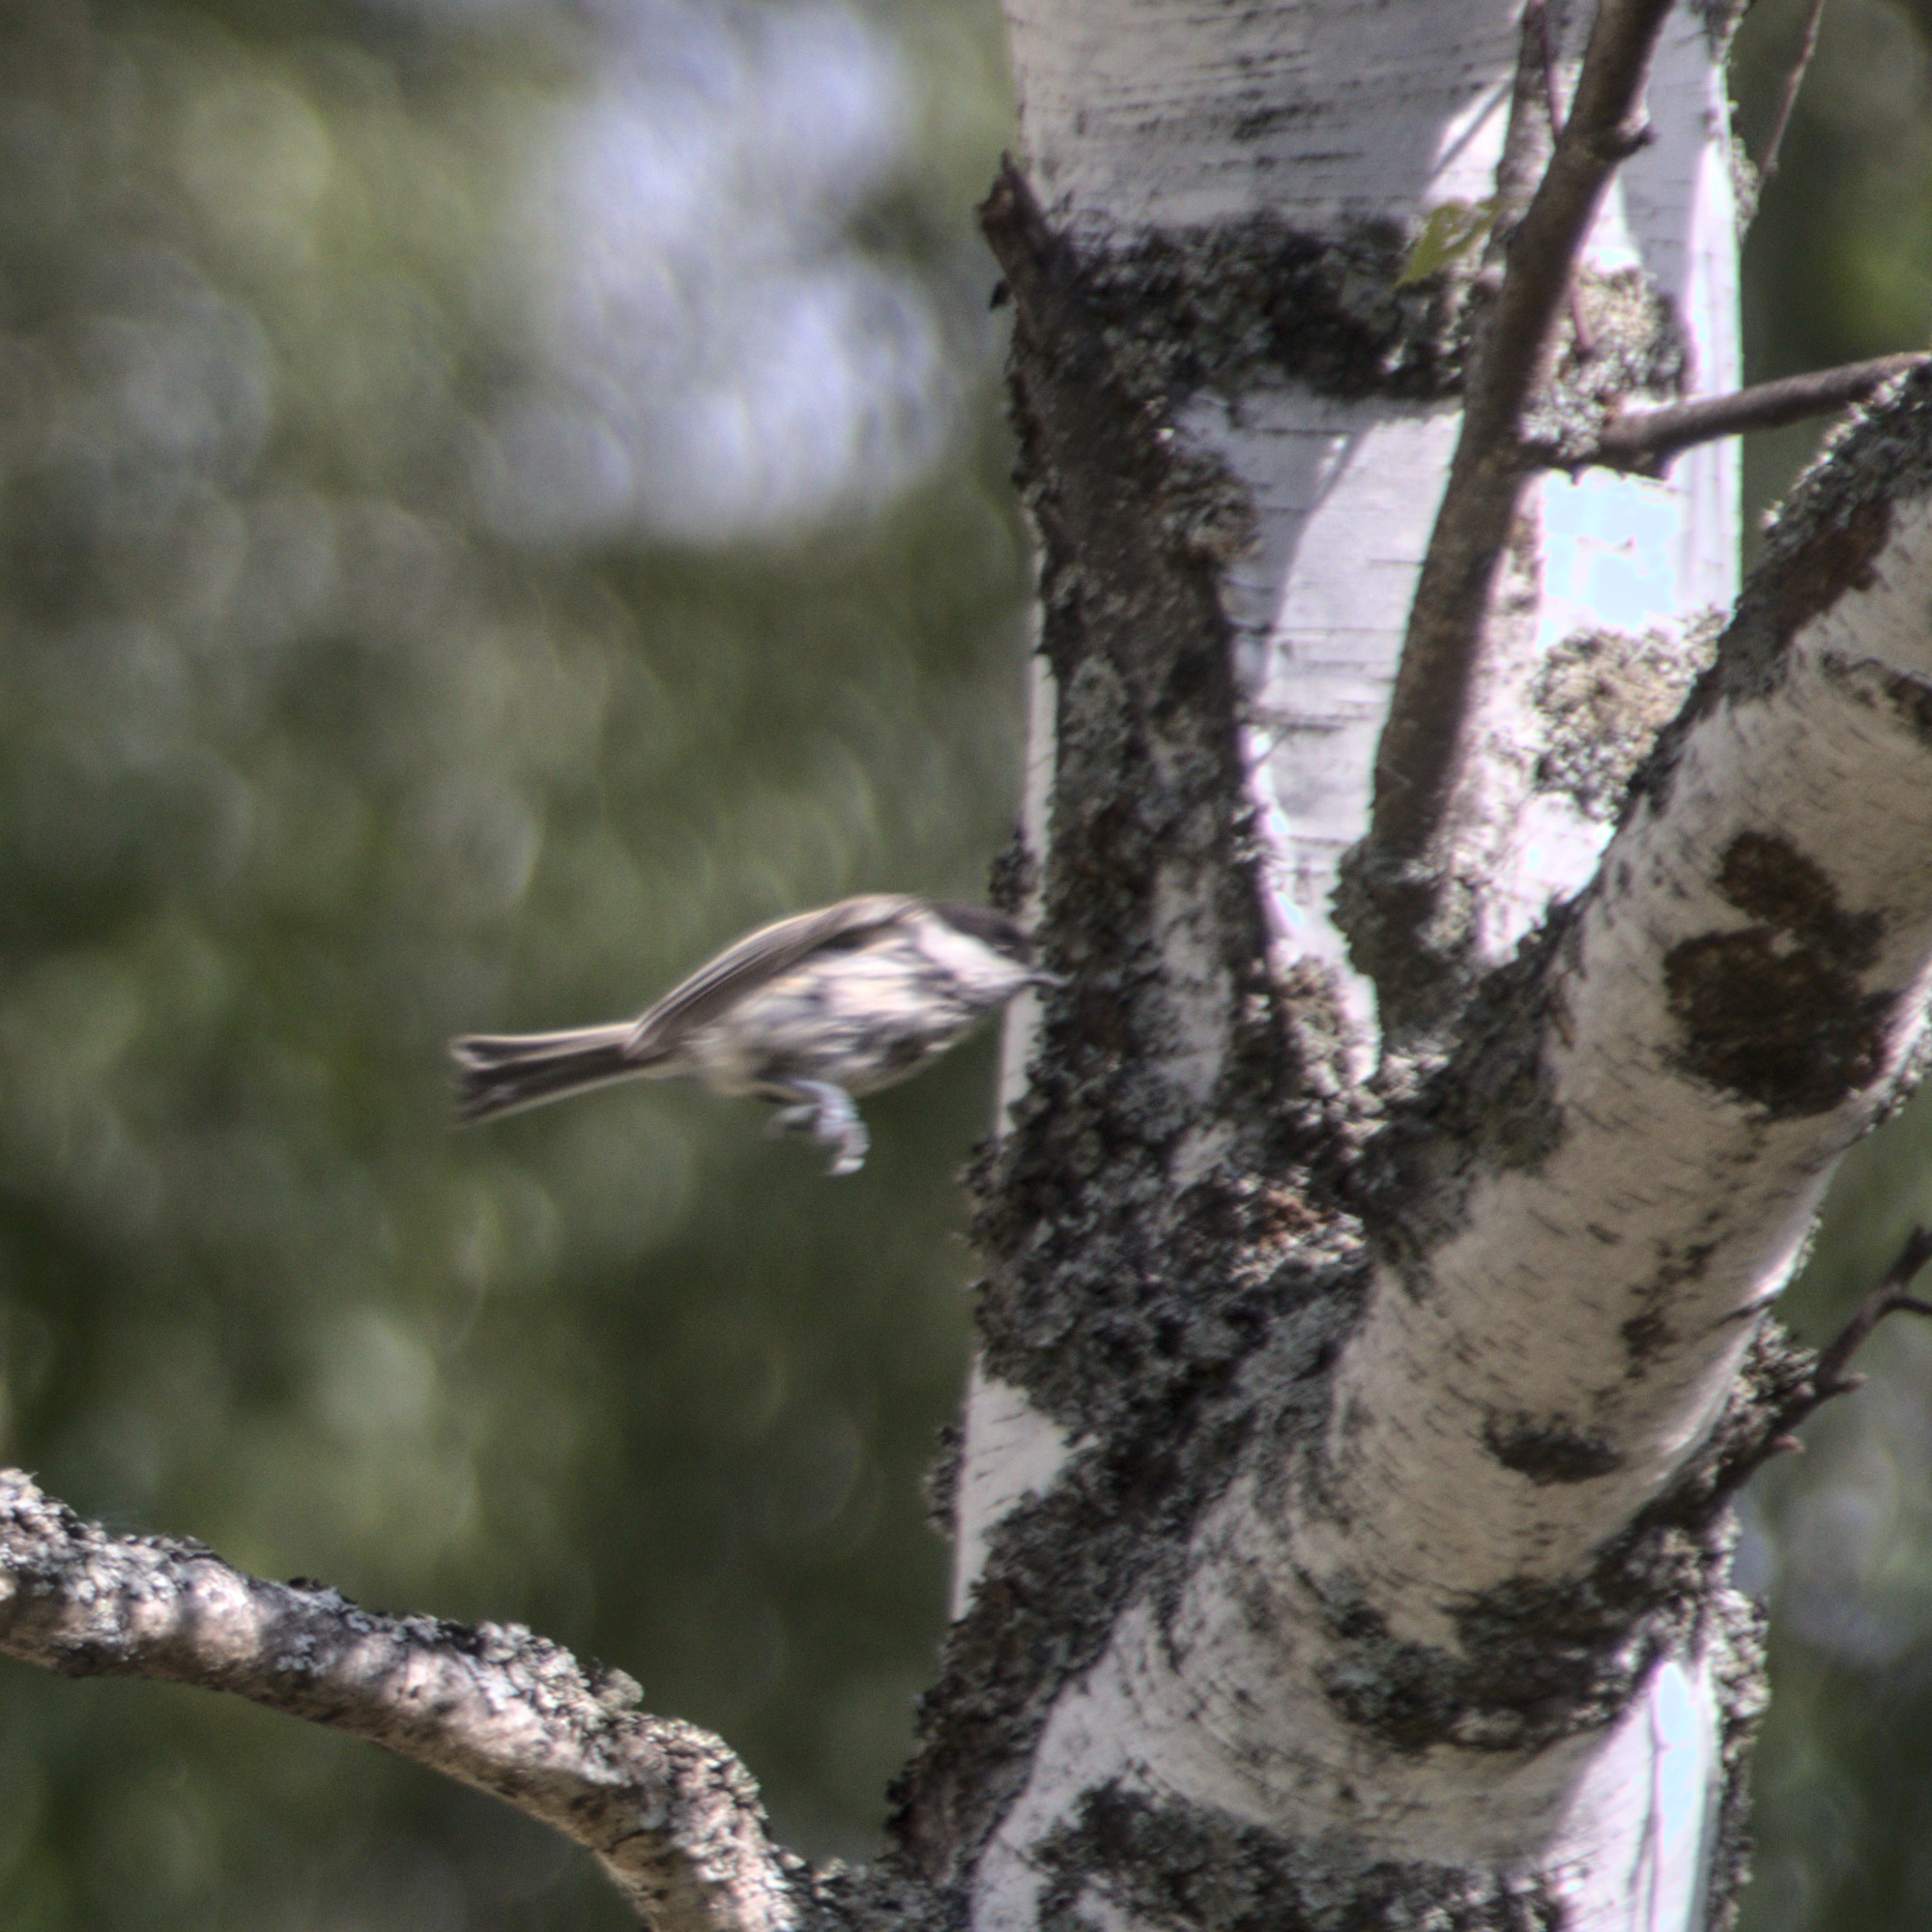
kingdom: Animalia
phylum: Chordata
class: Aves
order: Passeriformes
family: Paridae
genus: Poecile
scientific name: Poecile
